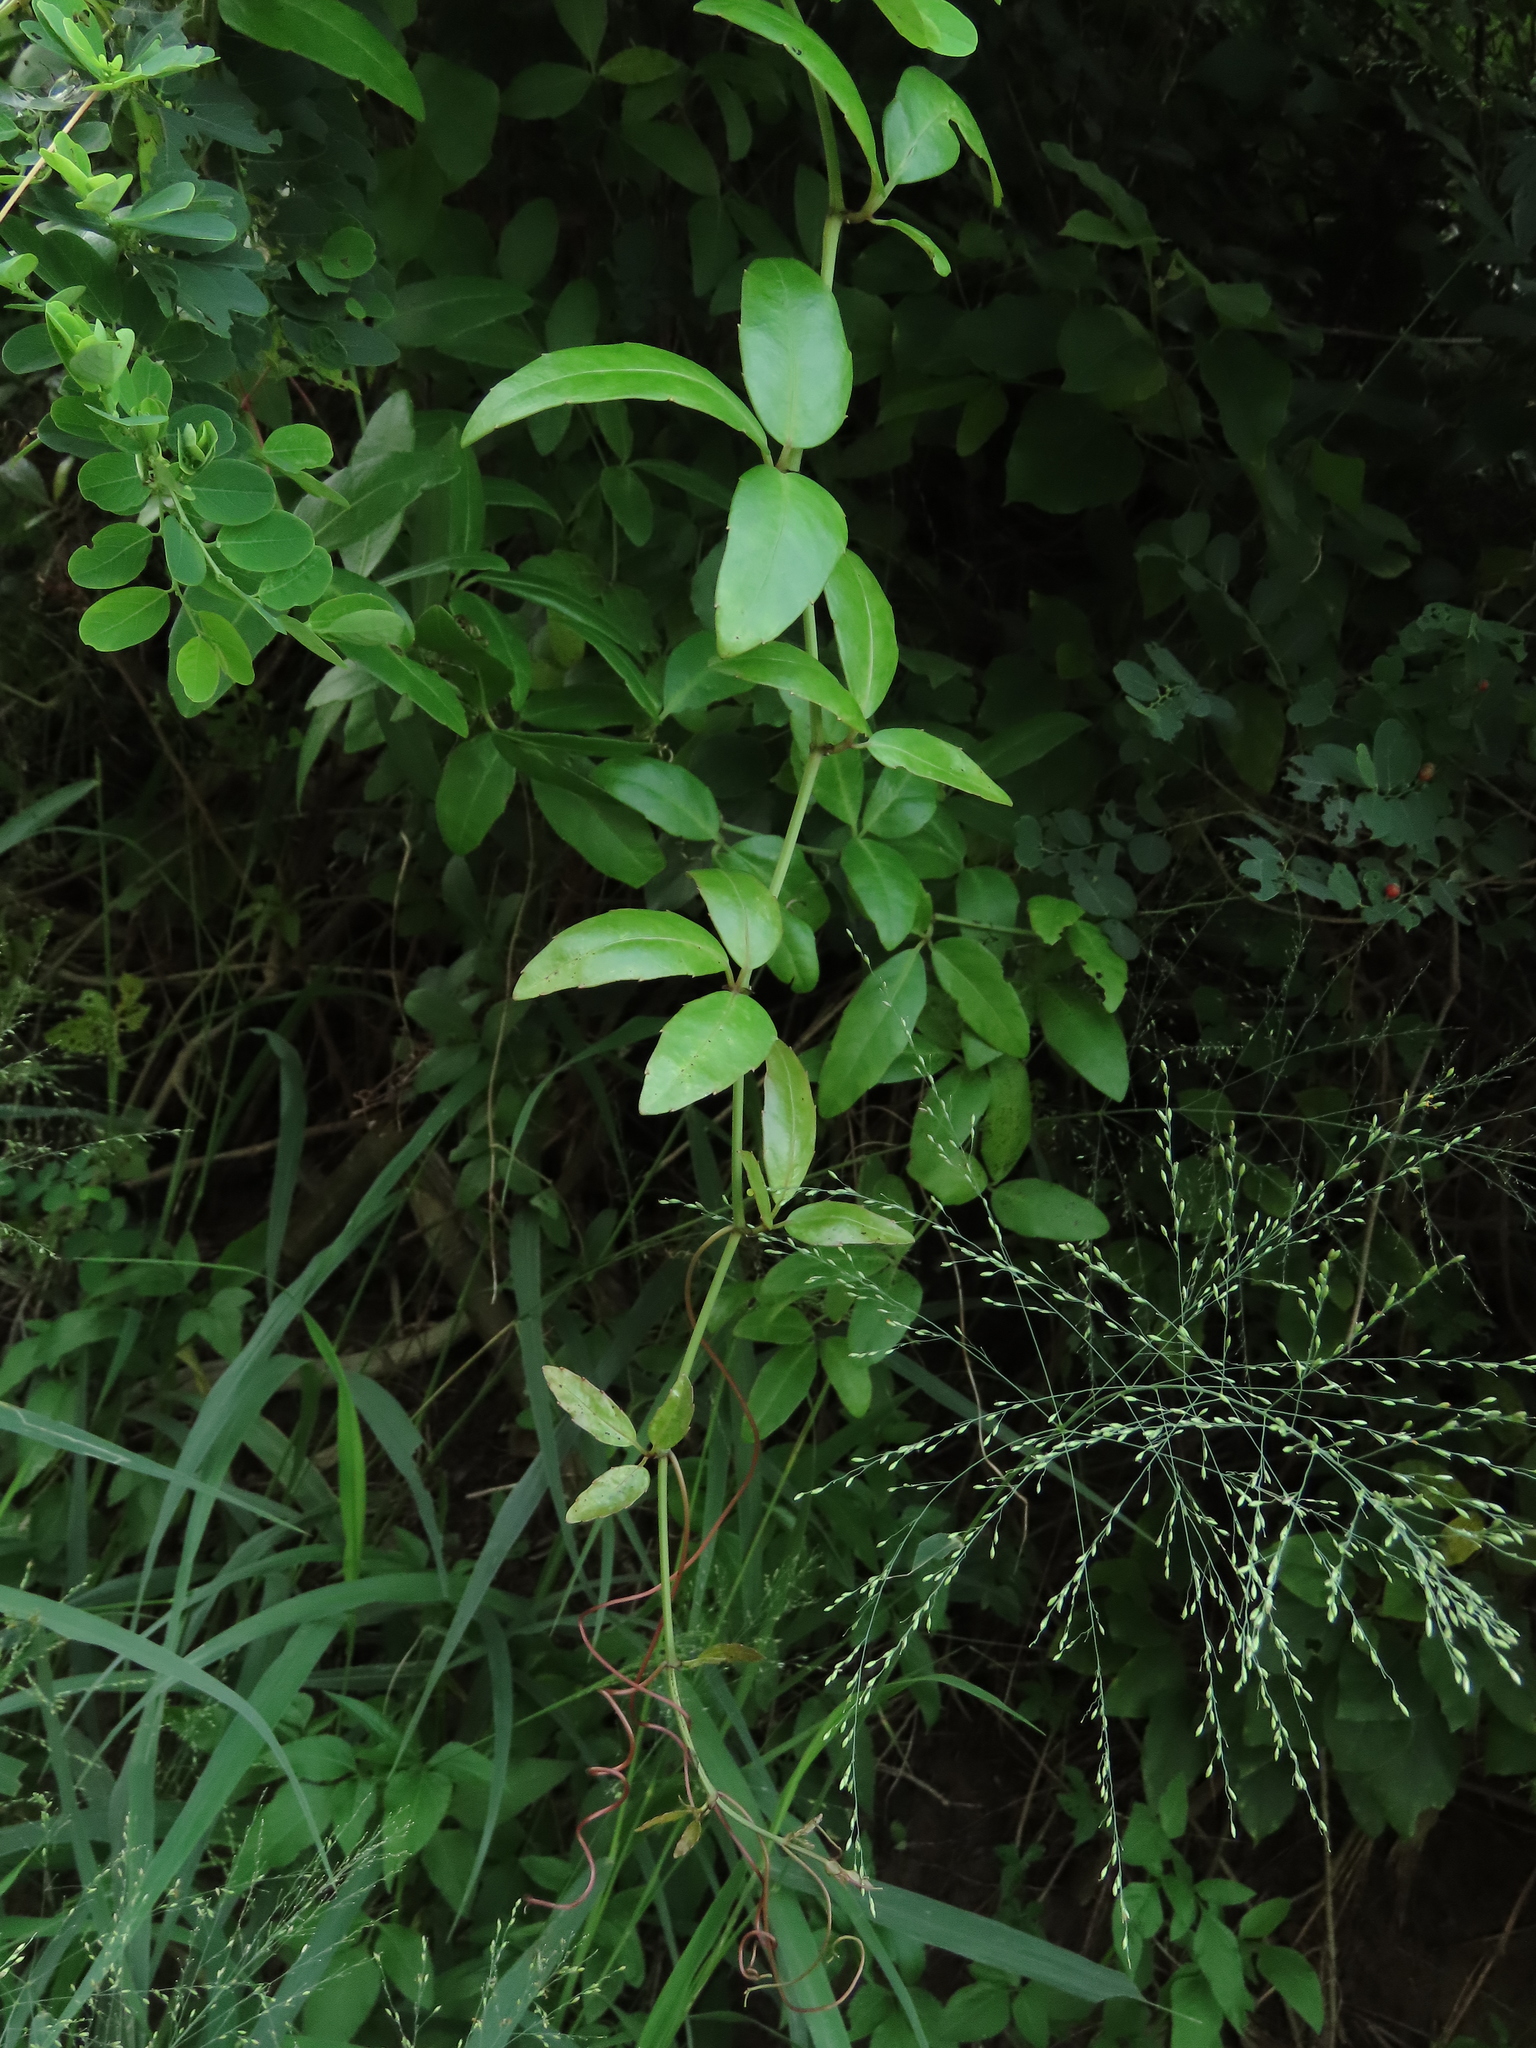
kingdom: Plantae
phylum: Tracheophyta
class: Magnoliopsida
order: Vitales
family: Vitaceae
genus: Tetrastigma
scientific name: Tetrastigma formosanum
